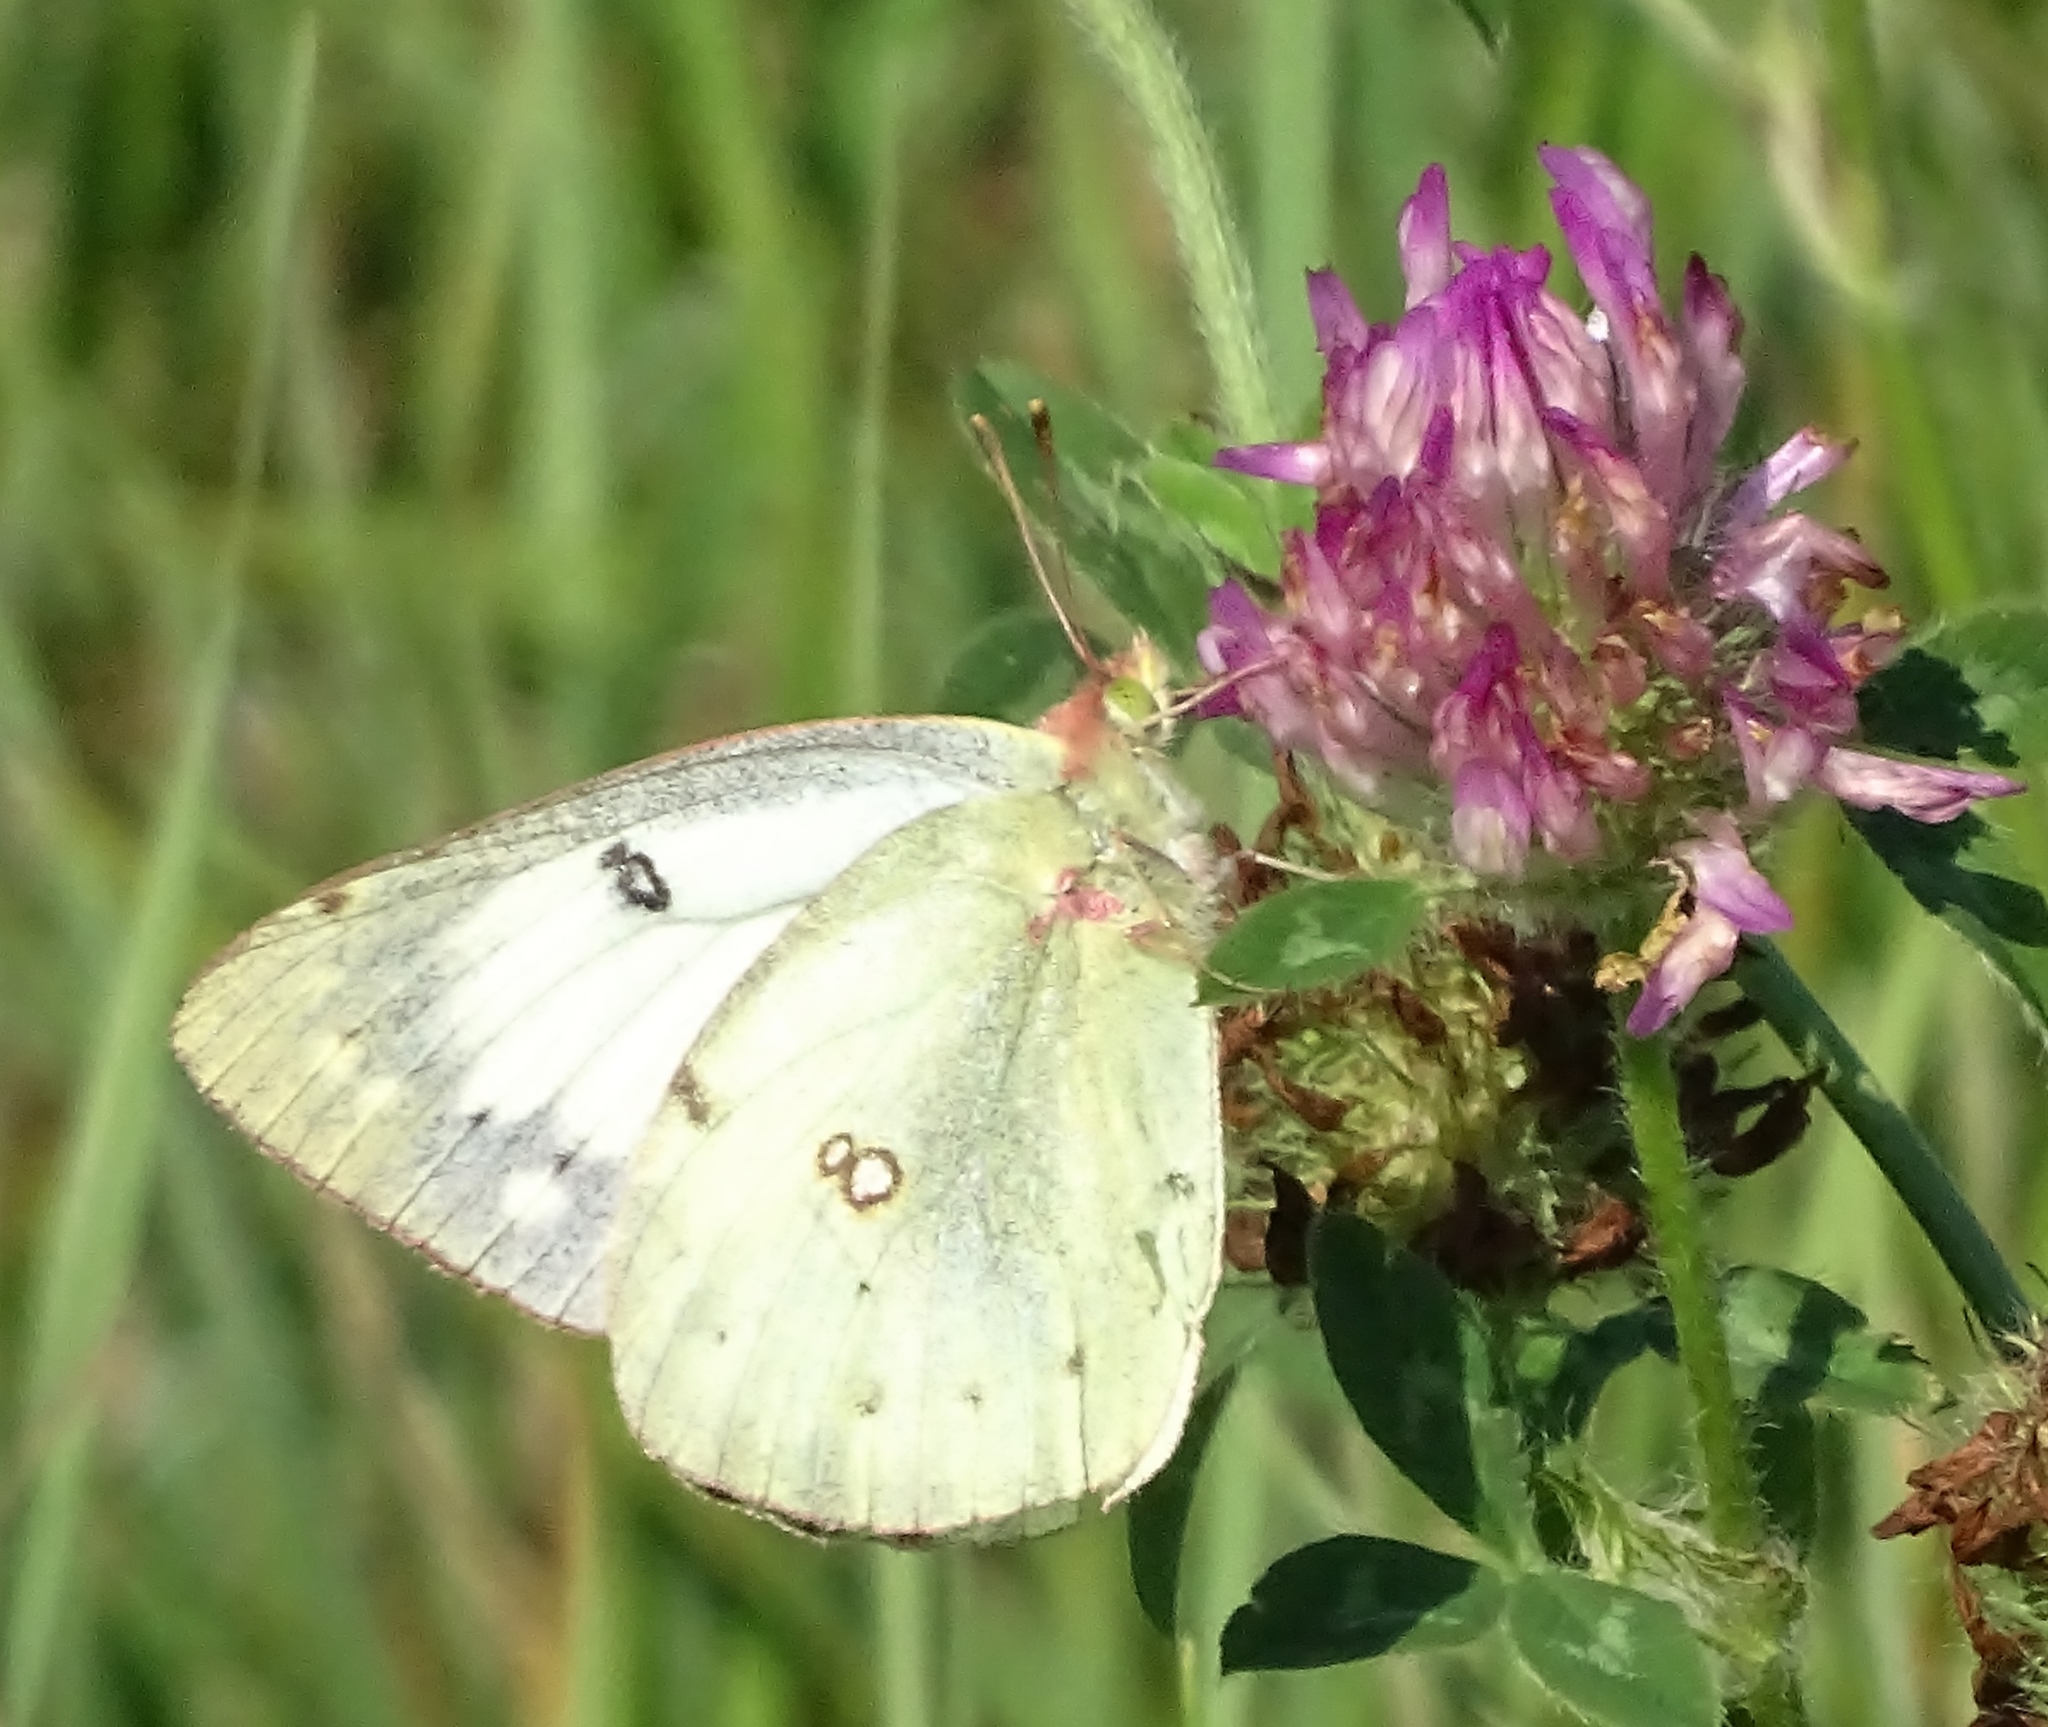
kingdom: Animalia
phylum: Arthropoda
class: Insecta
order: Lepidoptera
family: Pieridae
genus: Colias
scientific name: Colias eurytheme
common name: Alfalfa butterfly
